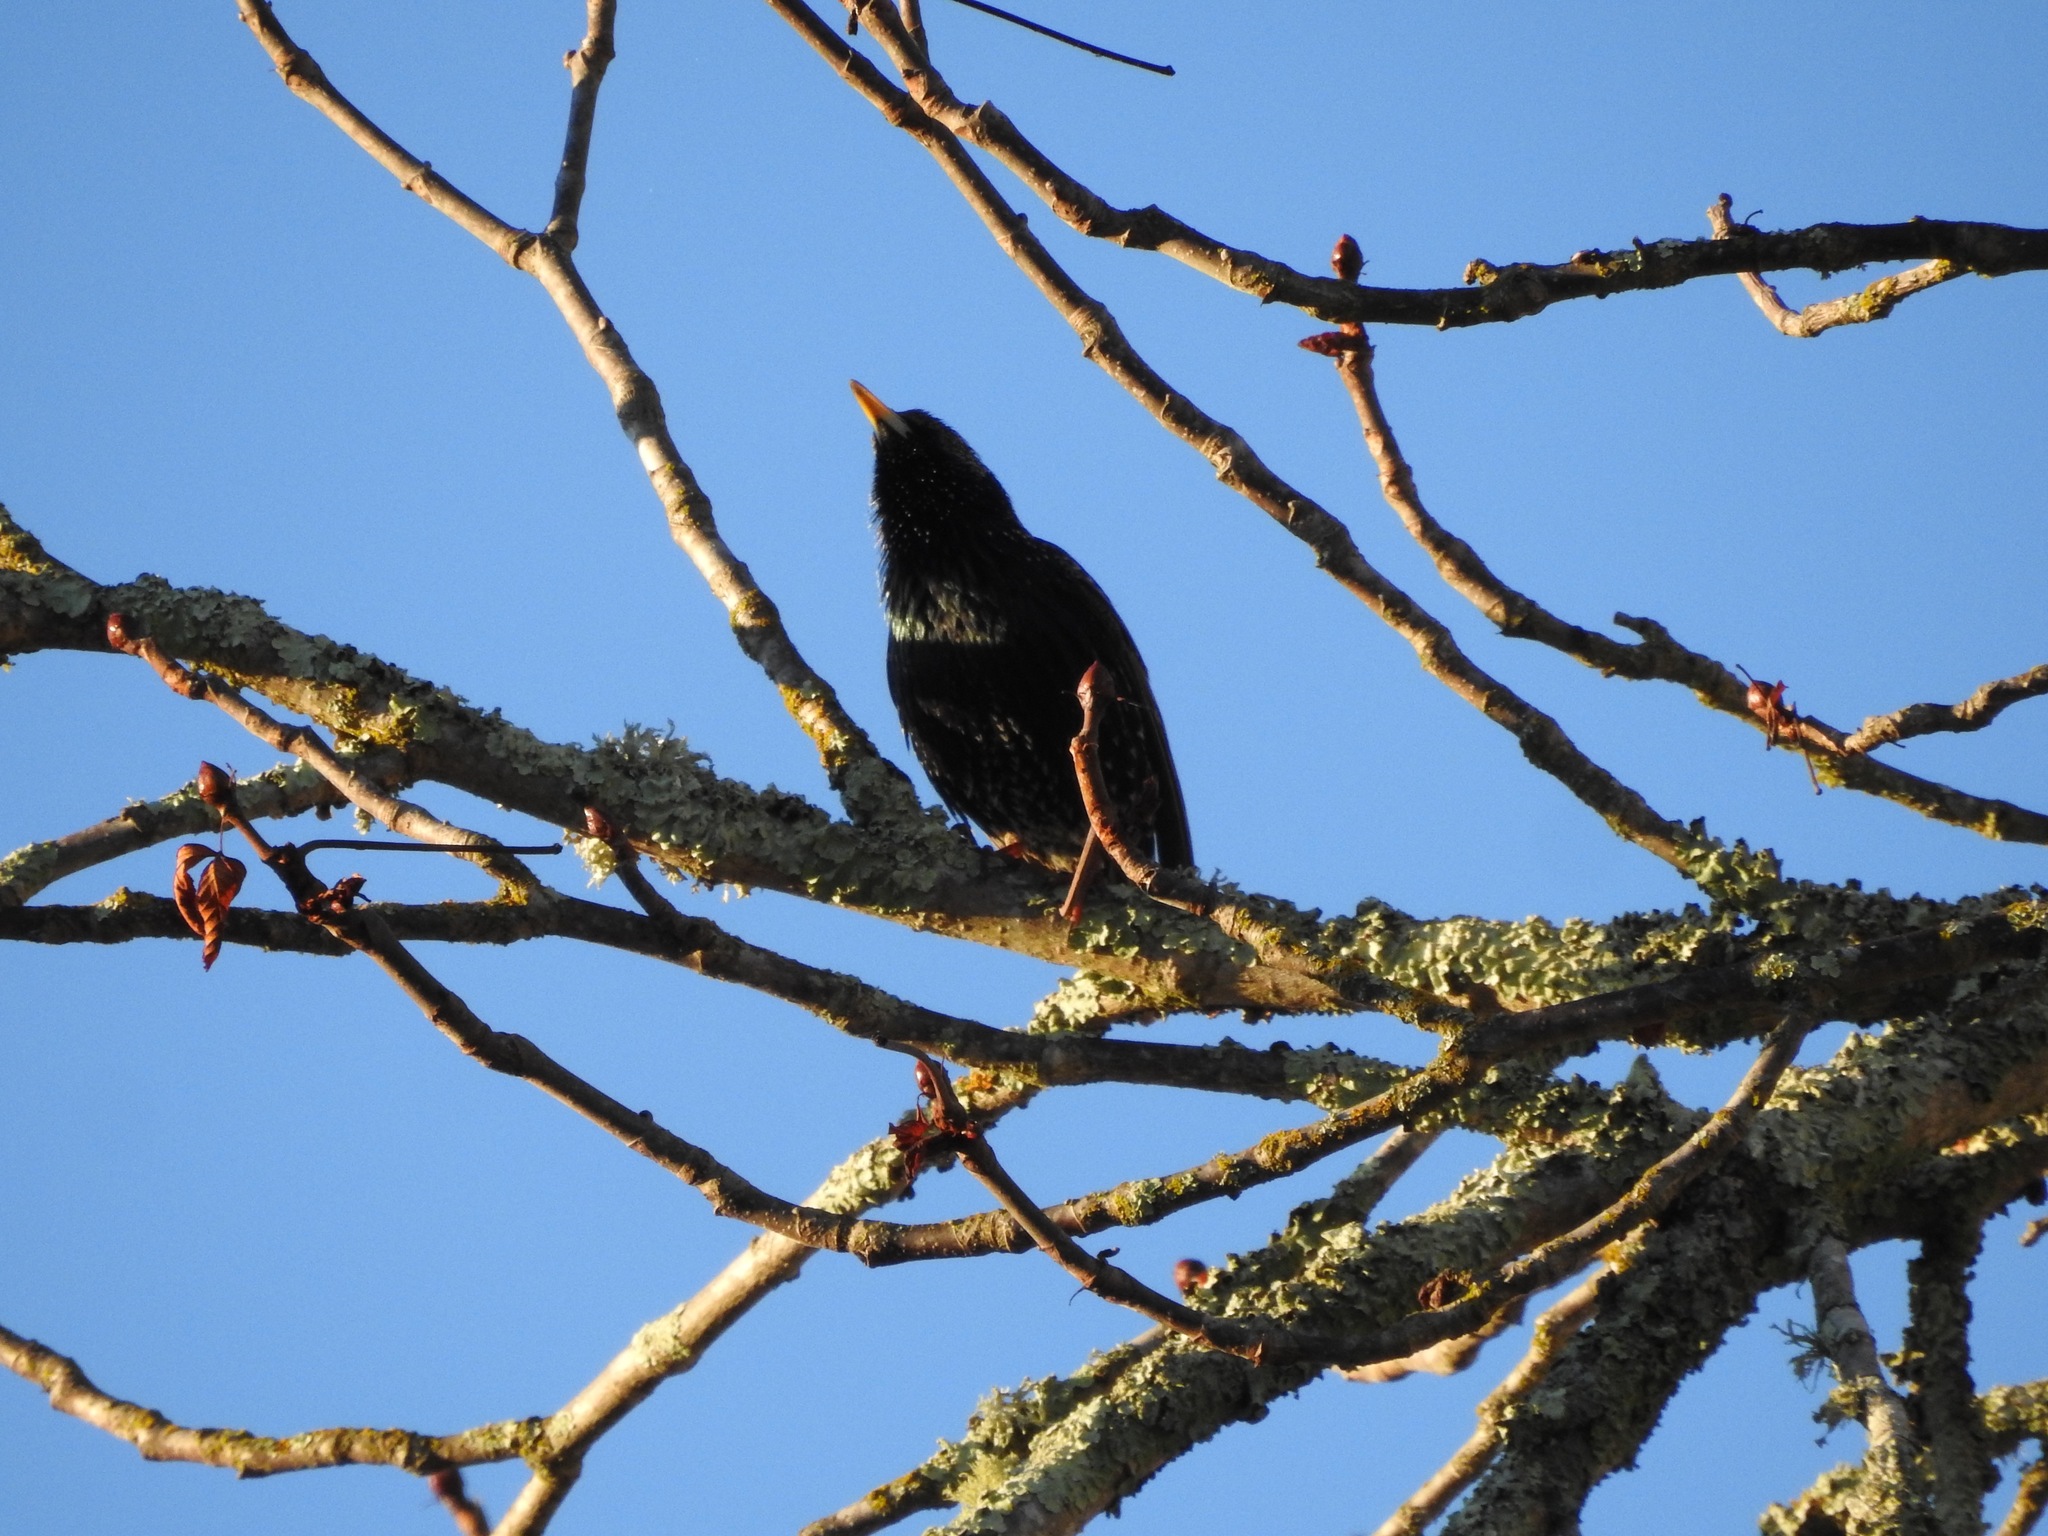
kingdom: Animalia
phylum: Chordata
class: Aves
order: Passeriformes
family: Sturnidae
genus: Sturnus
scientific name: Sturnus vulgaris
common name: Common starling
